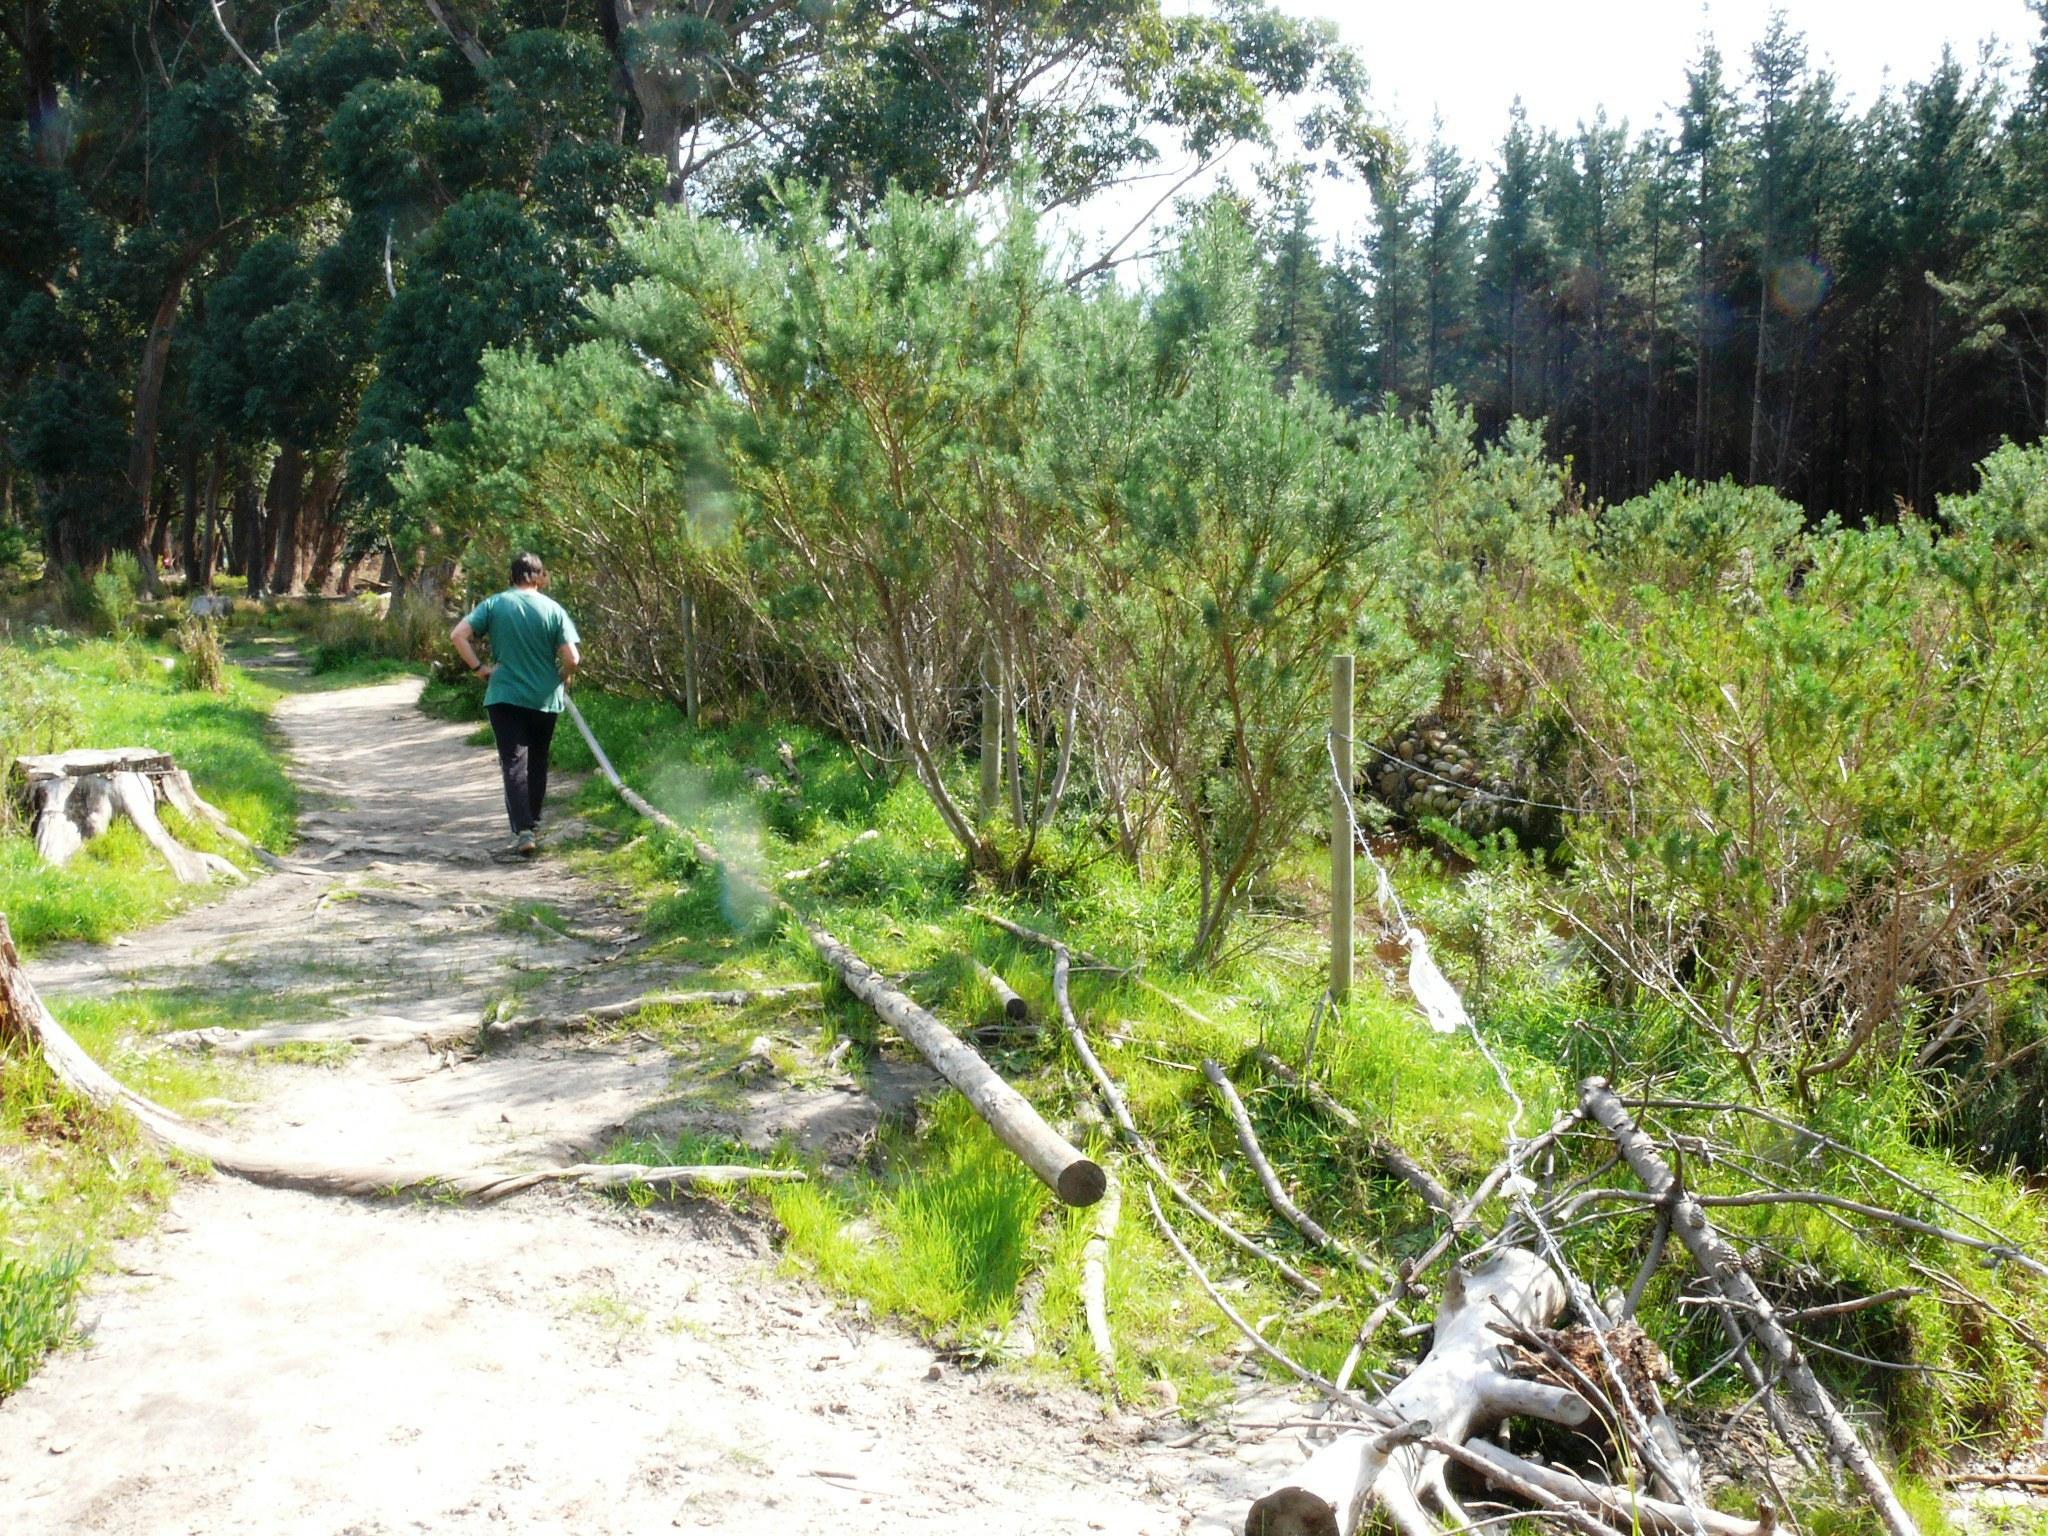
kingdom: Plantae
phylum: Tracheophyta
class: Magnoliopsida
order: Fabales
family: Fabaceae
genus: Psoralea
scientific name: Psoralea pinnata
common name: African scurfpea
